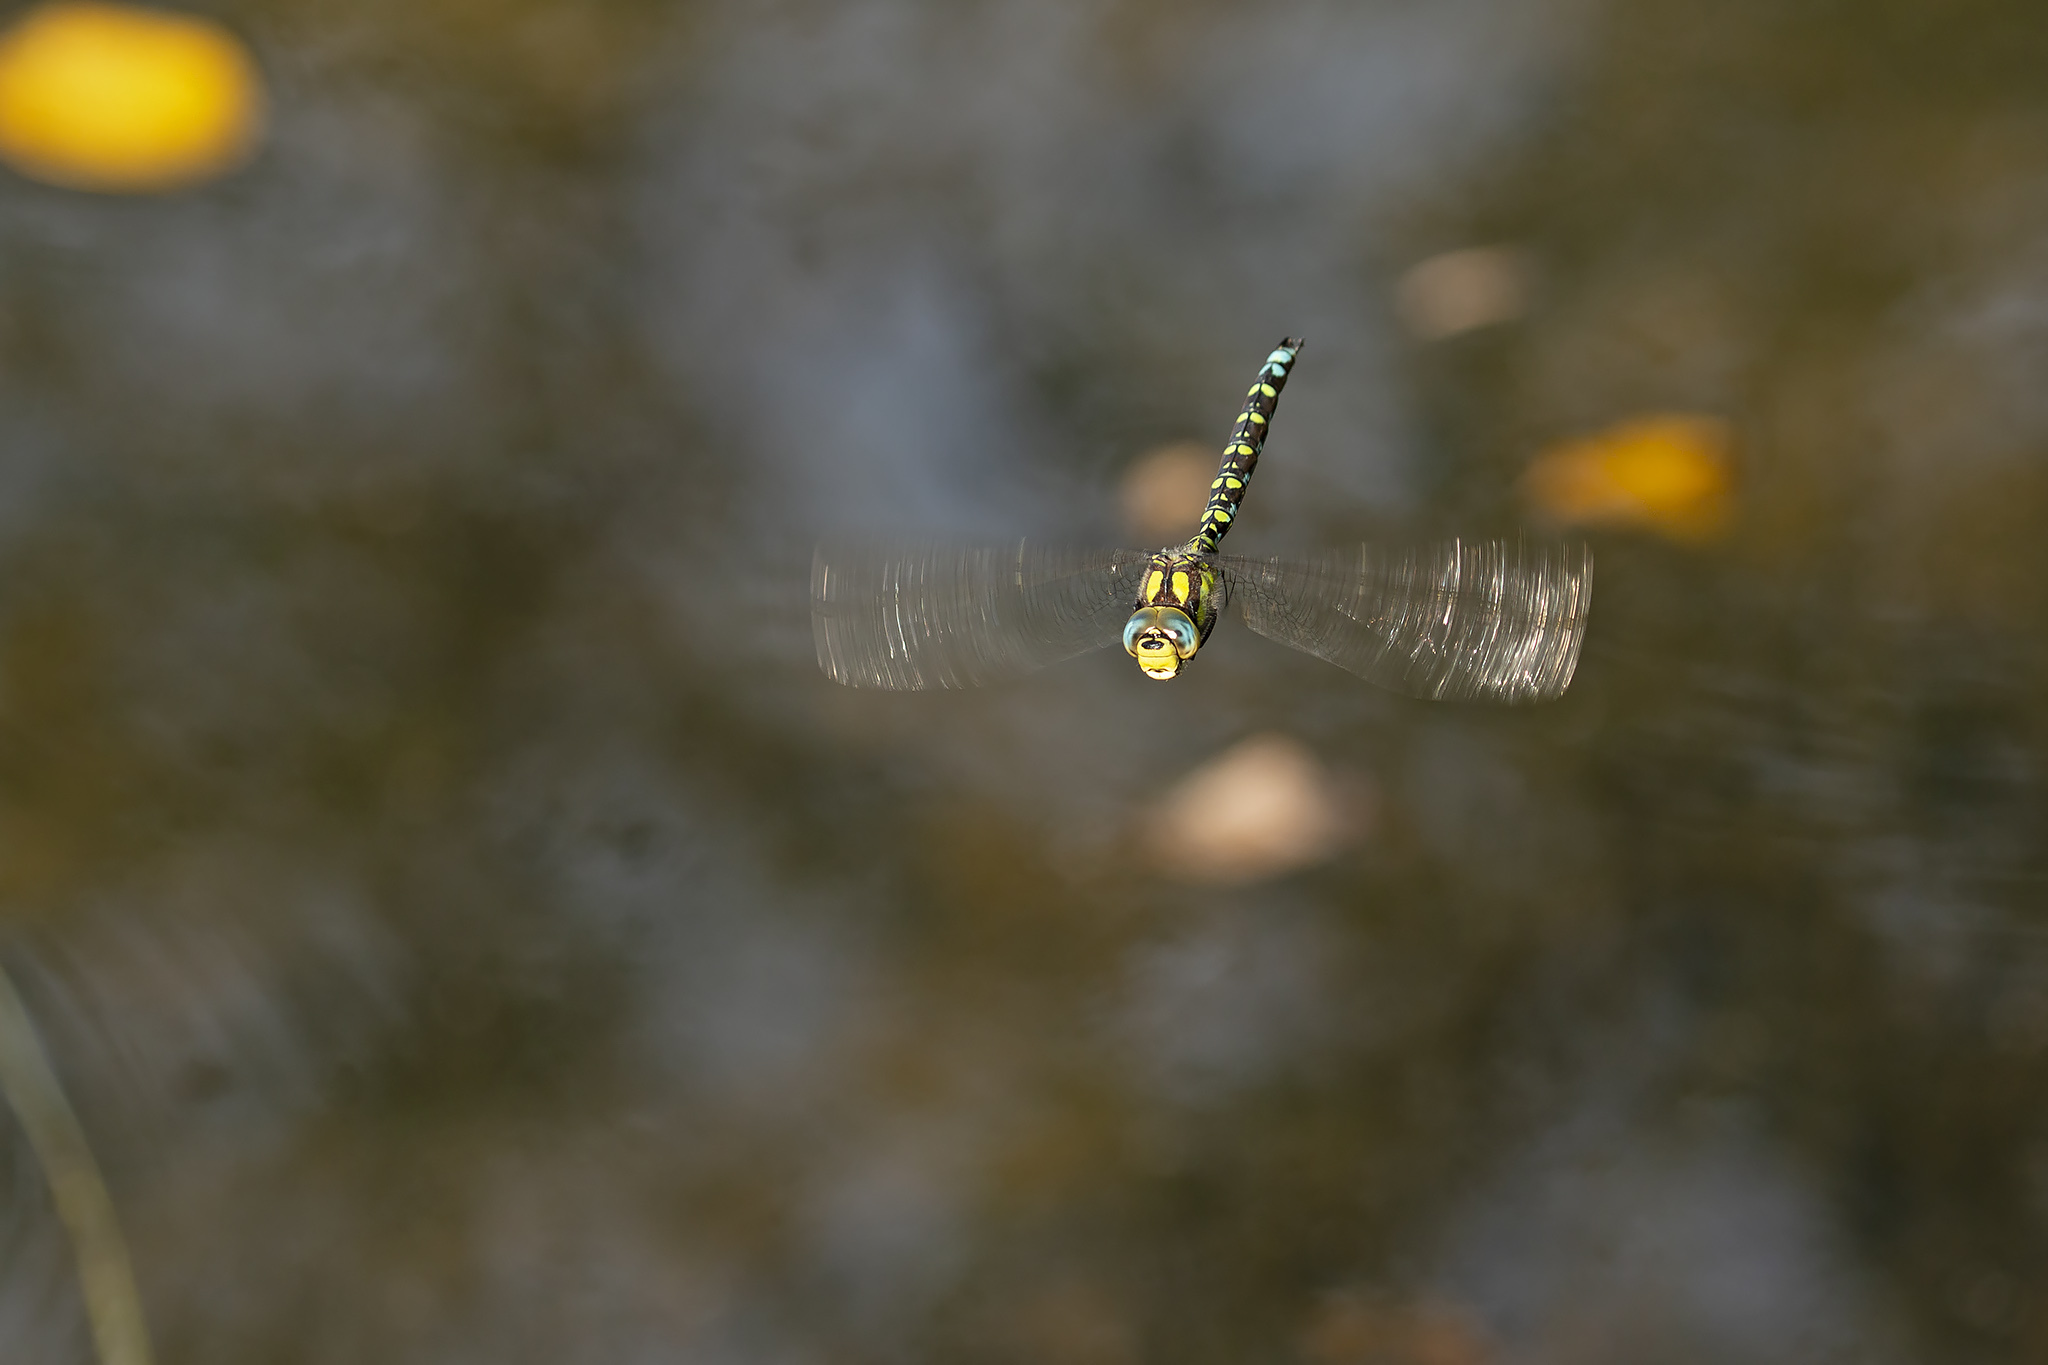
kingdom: Animalia
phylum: Arthropoda
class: Insecta
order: Odonata
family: Aeshnidae
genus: Aeshna
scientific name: Aeshna cyanea
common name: Southern hawker
